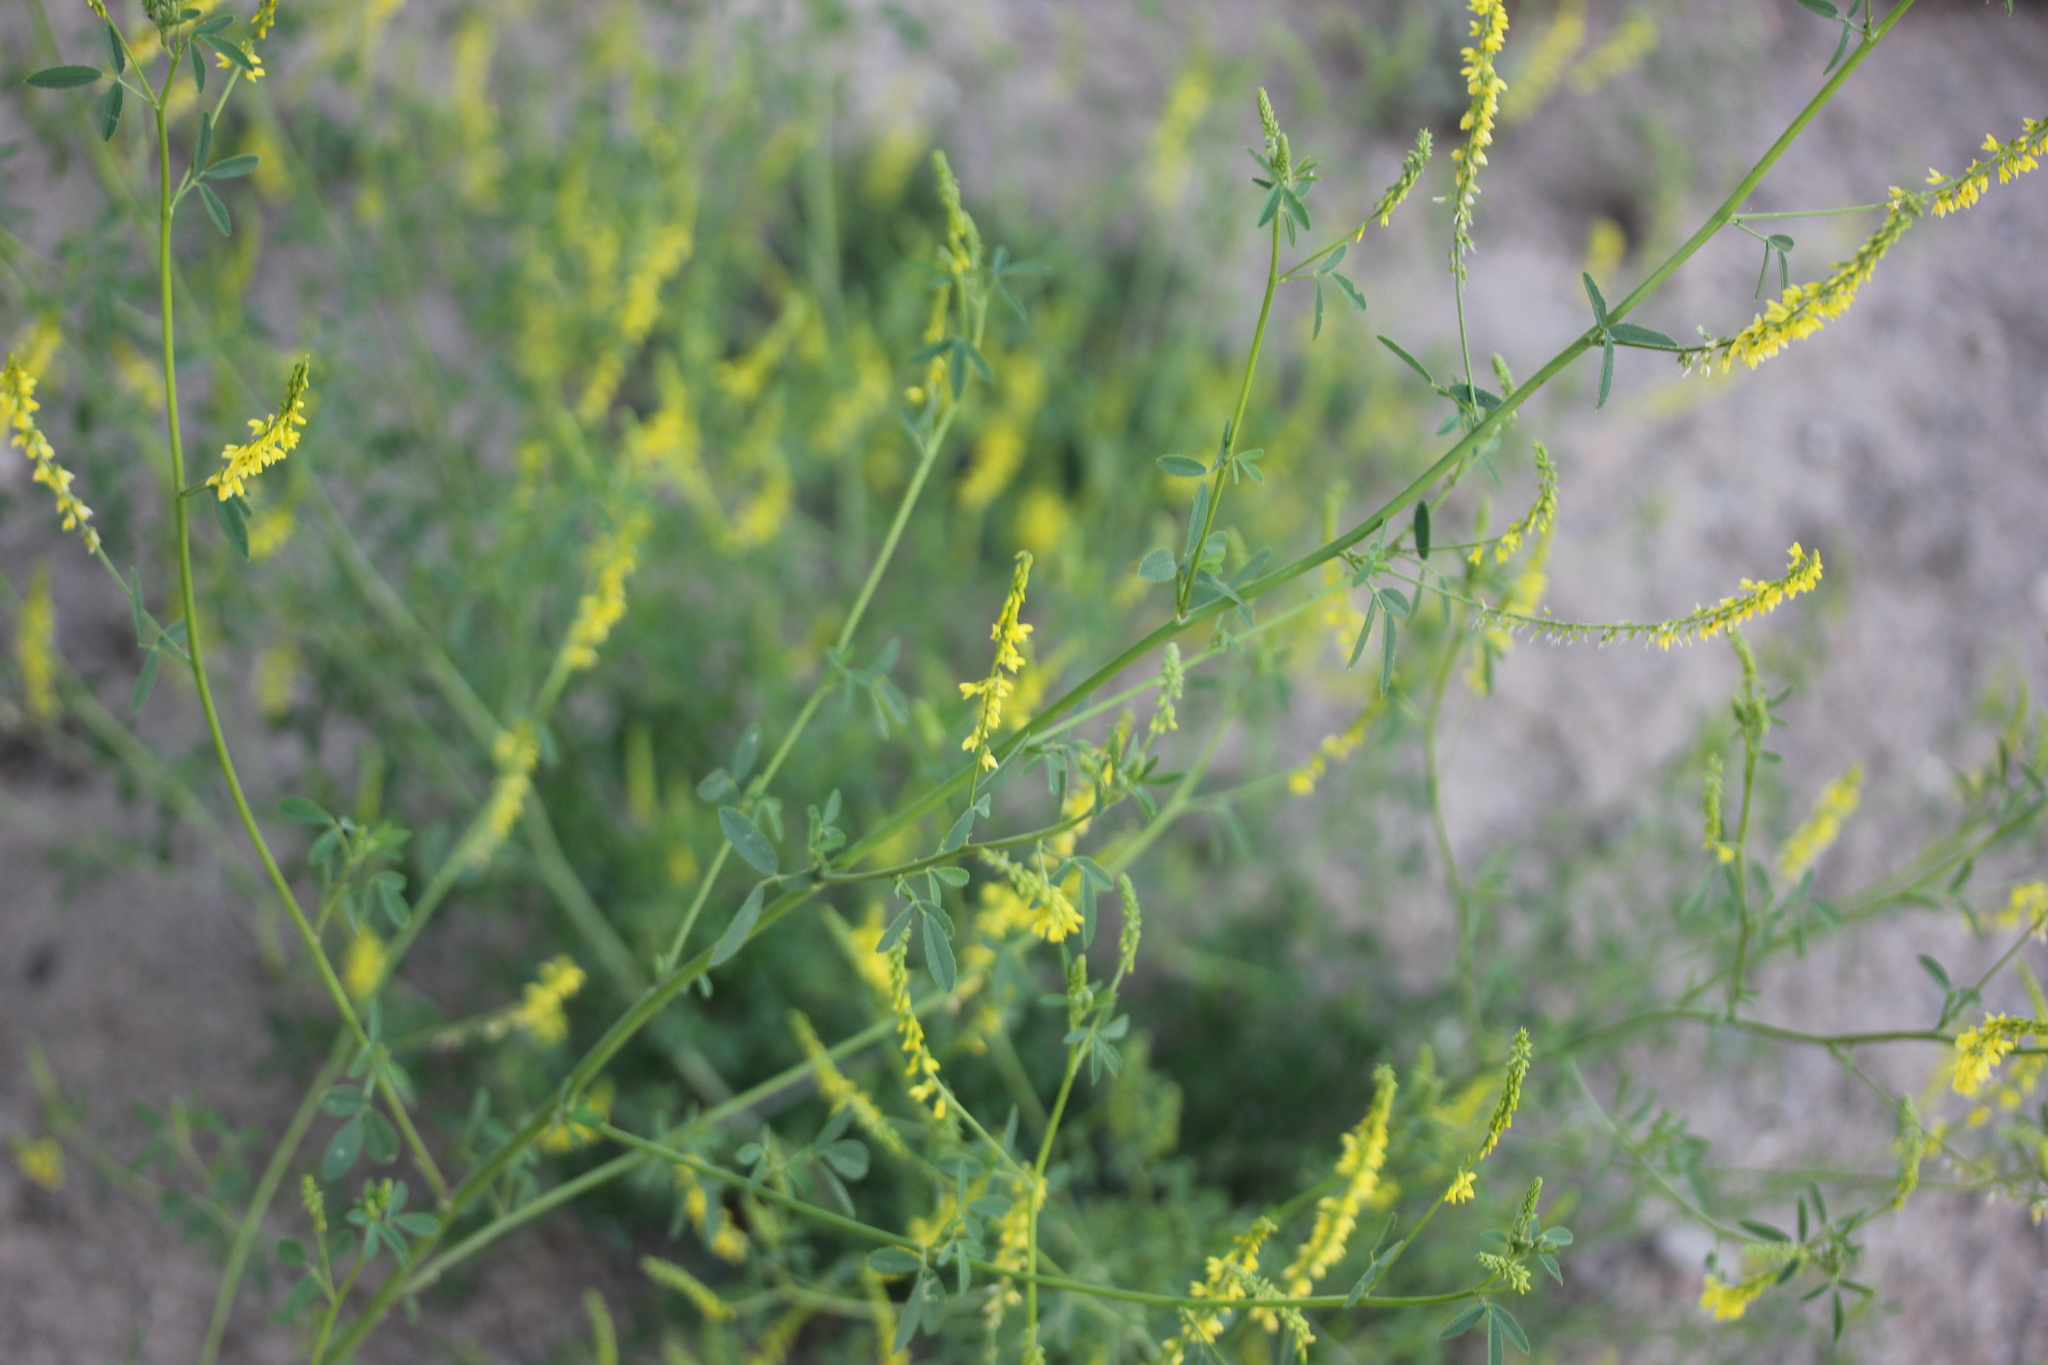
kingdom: Plantae
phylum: Tracheophyta
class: Magnoliopsida
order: Fabales
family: Fabaceae
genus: Melilotus
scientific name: Melilotus officinalis
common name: Sweetclover
